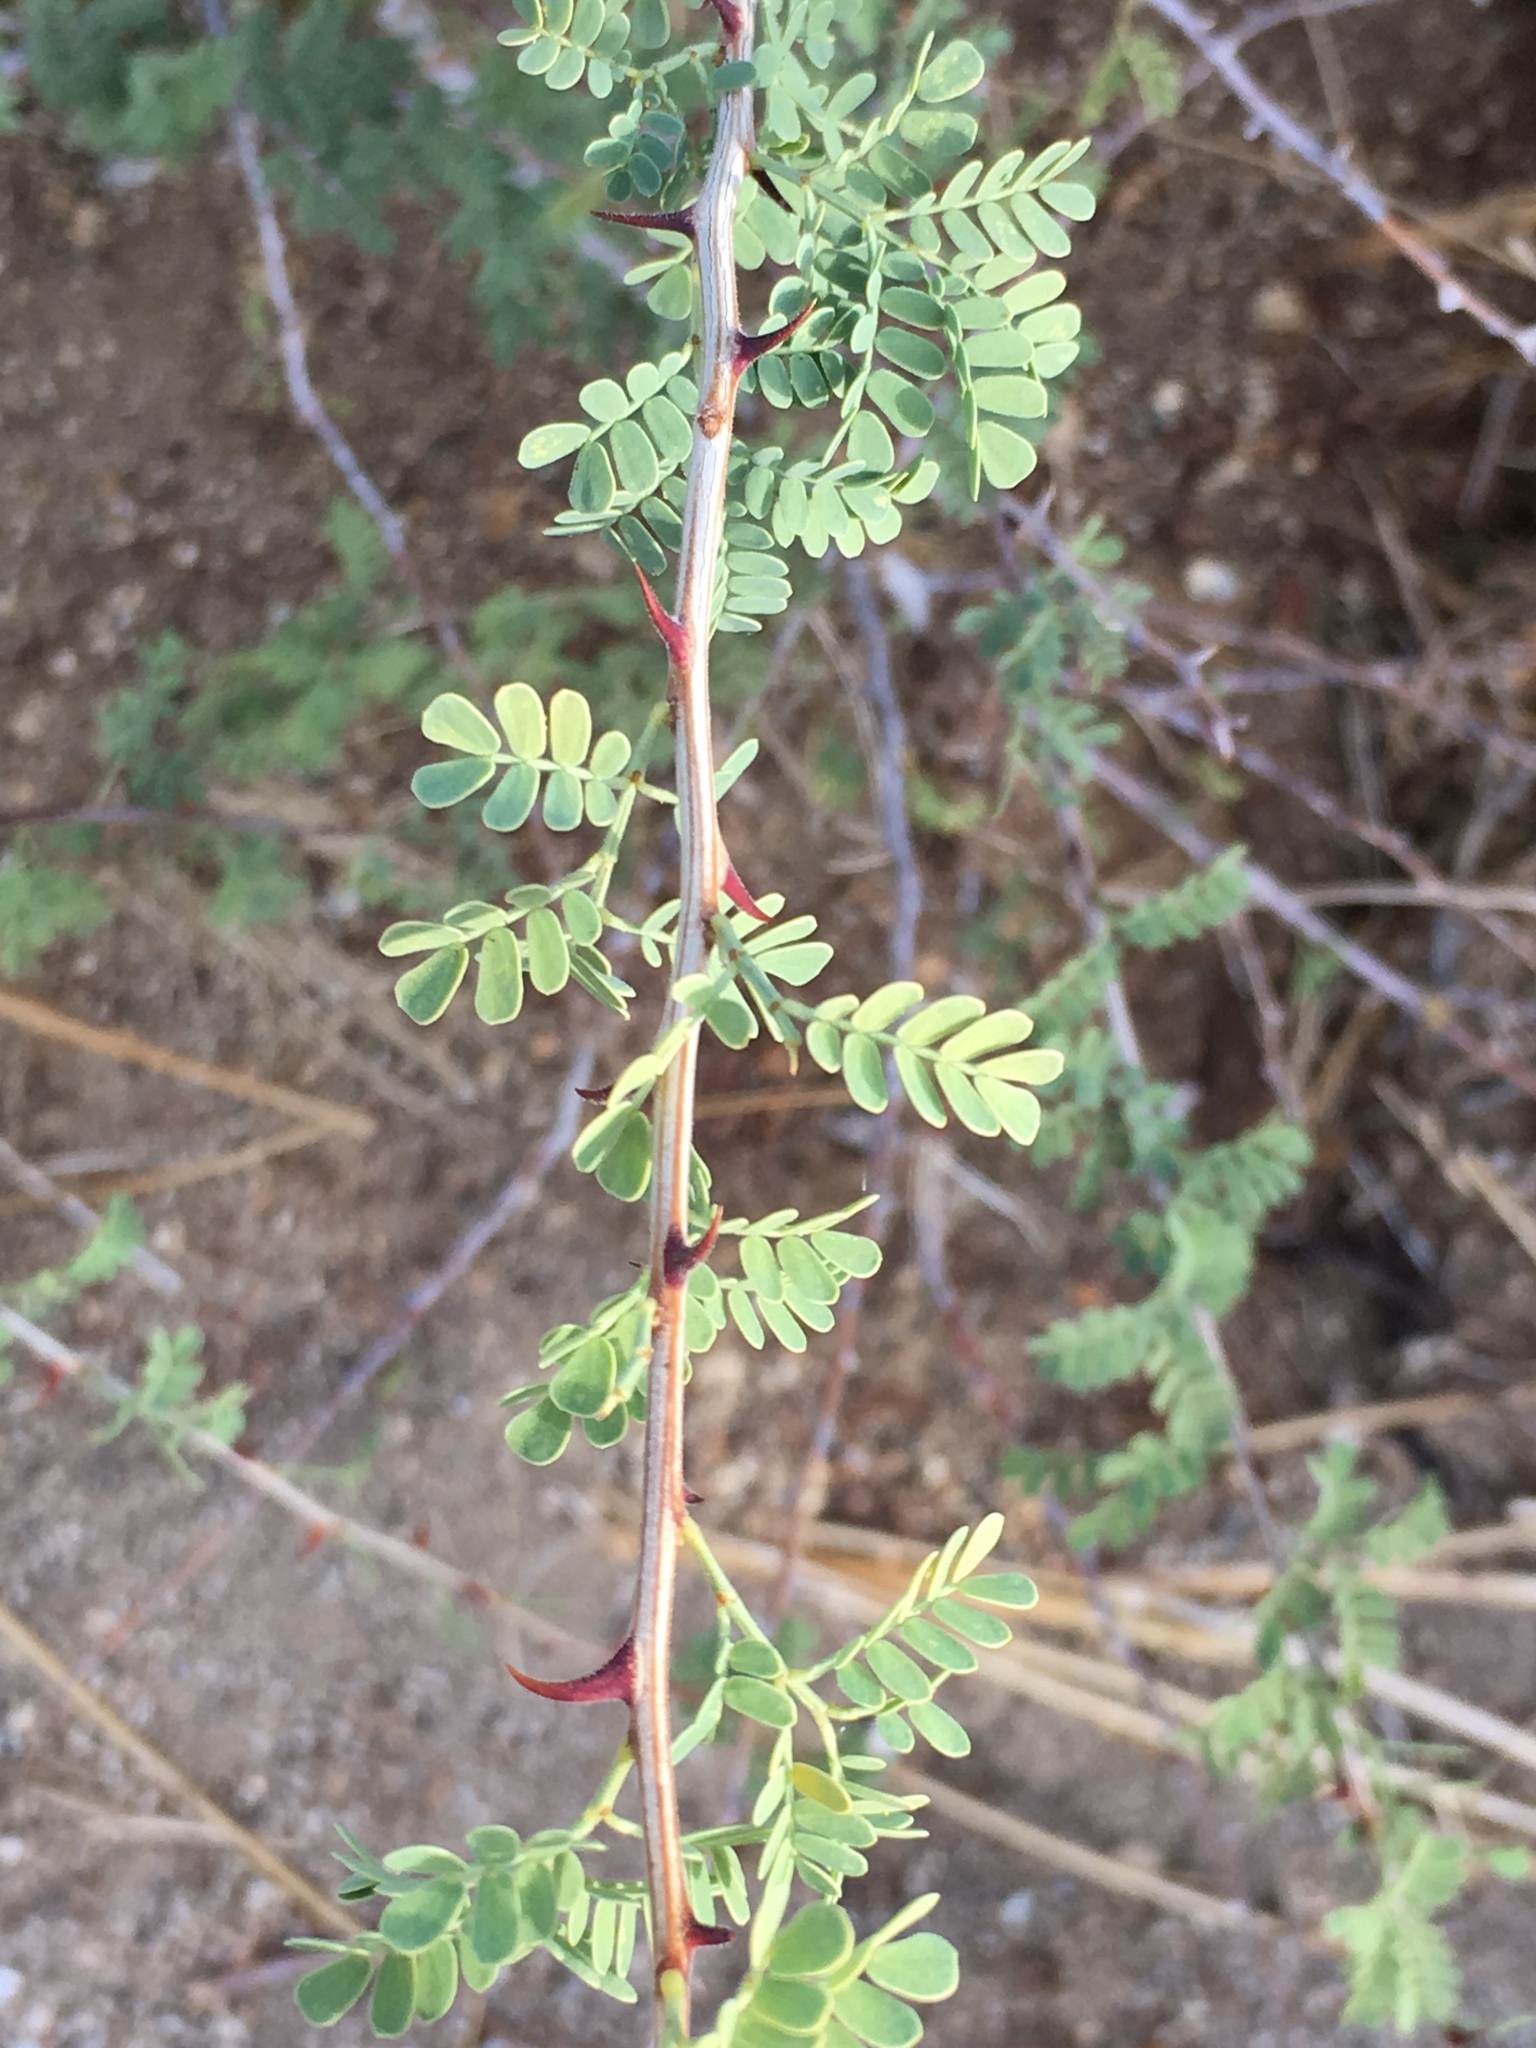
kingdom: Plantae
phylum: Tracheophyta
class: Magnoliopsida
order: Fabales
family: Fabaceae
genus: Senegalia
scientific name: Senegalia greggii
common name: Texas-mimosa
